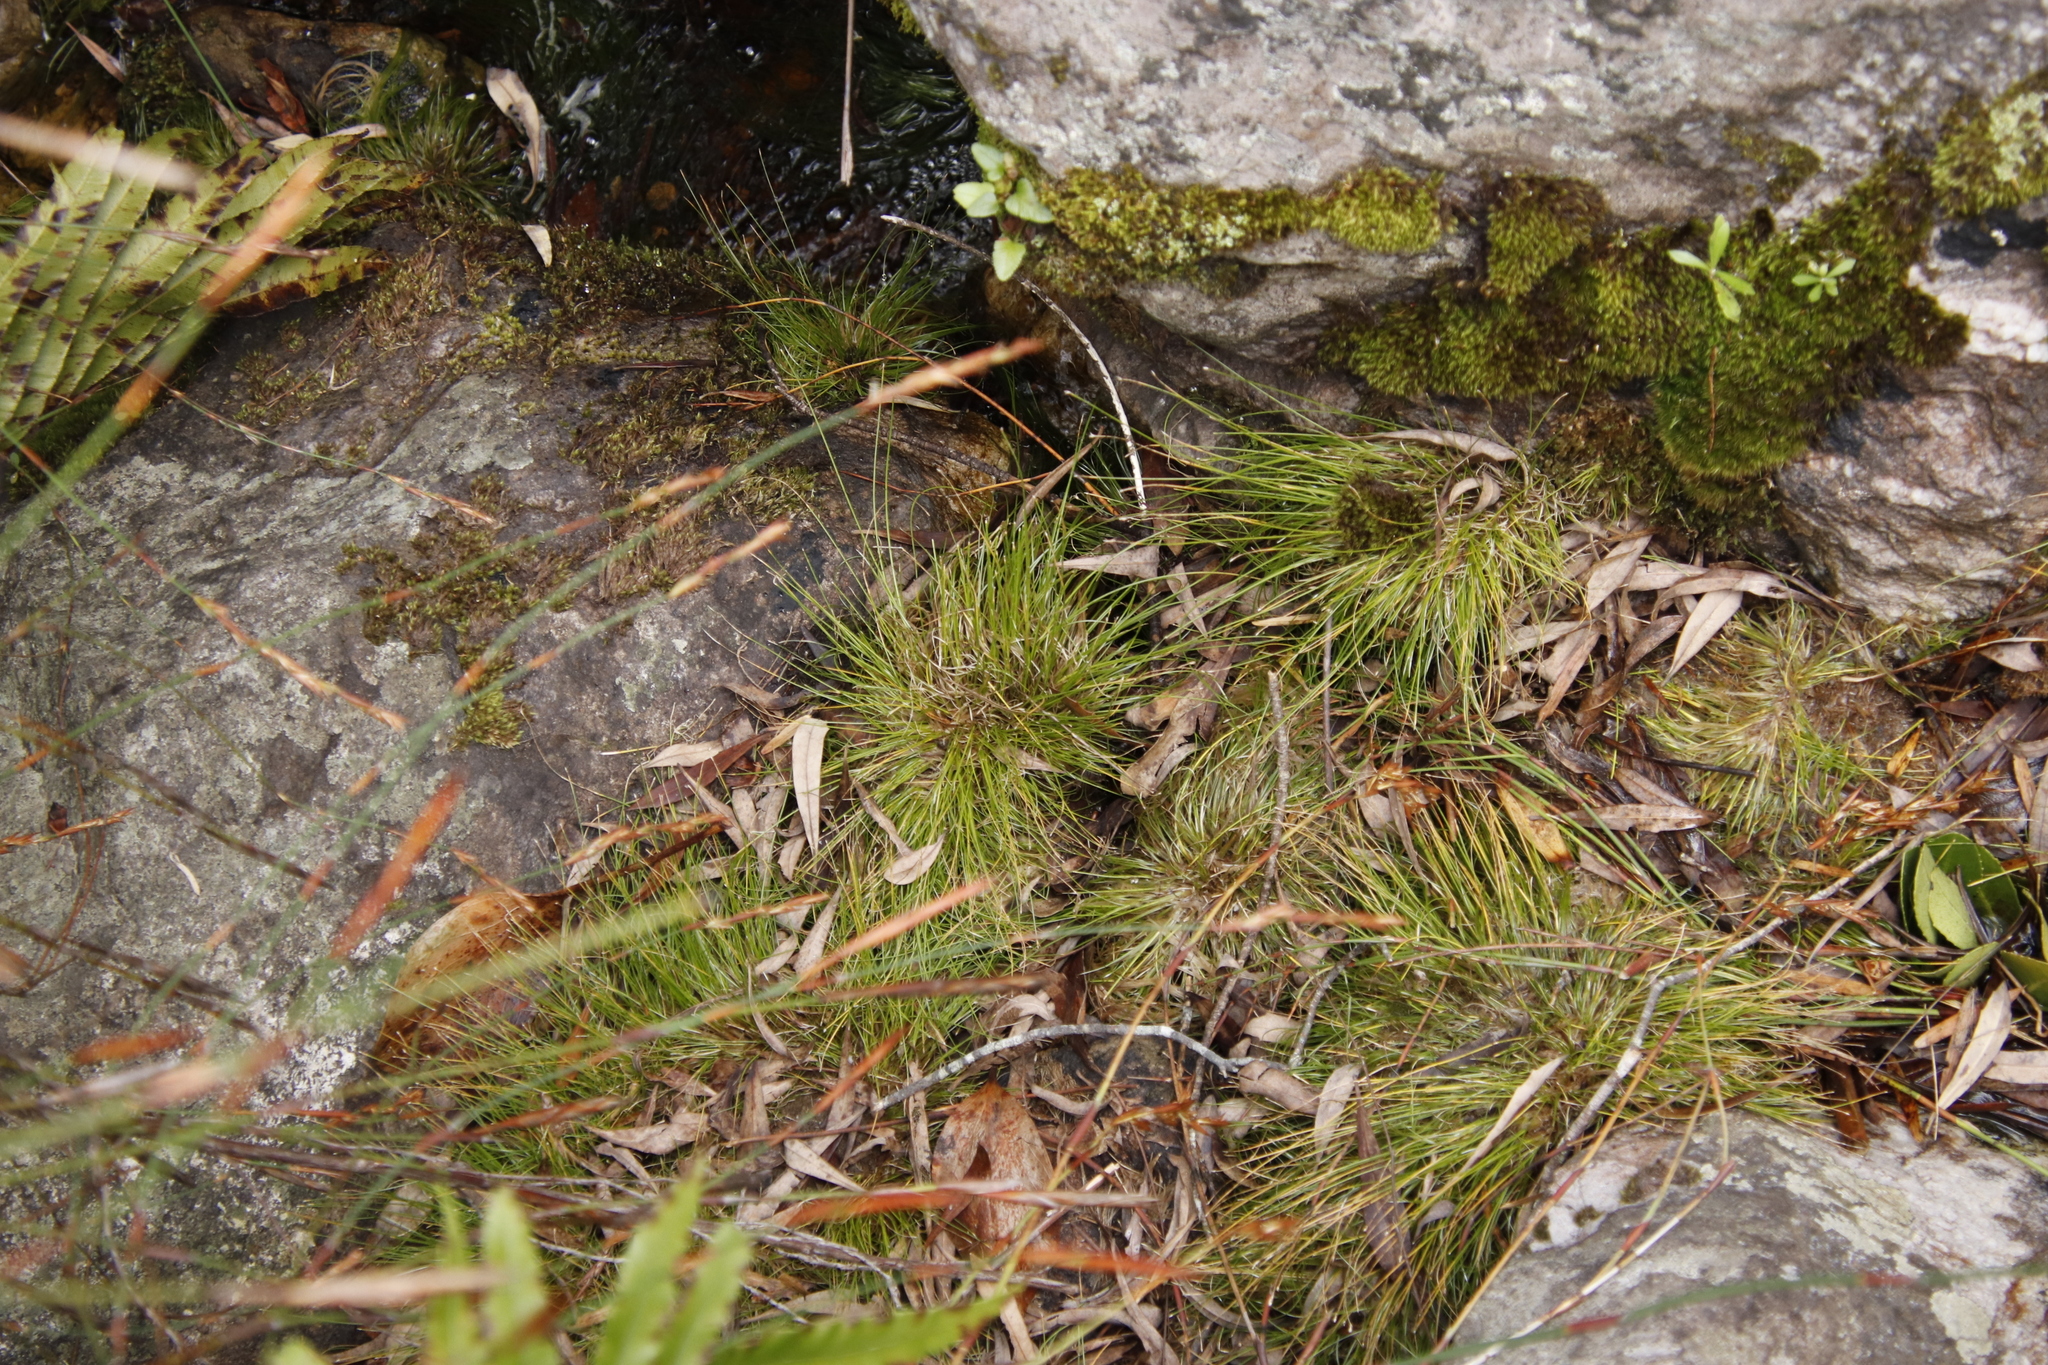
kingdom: Plantae
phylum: Tracheophyta
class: Liliopsida
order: Poales
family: Cyperaceae
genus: Isolepis
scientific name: Isolepis digitata
